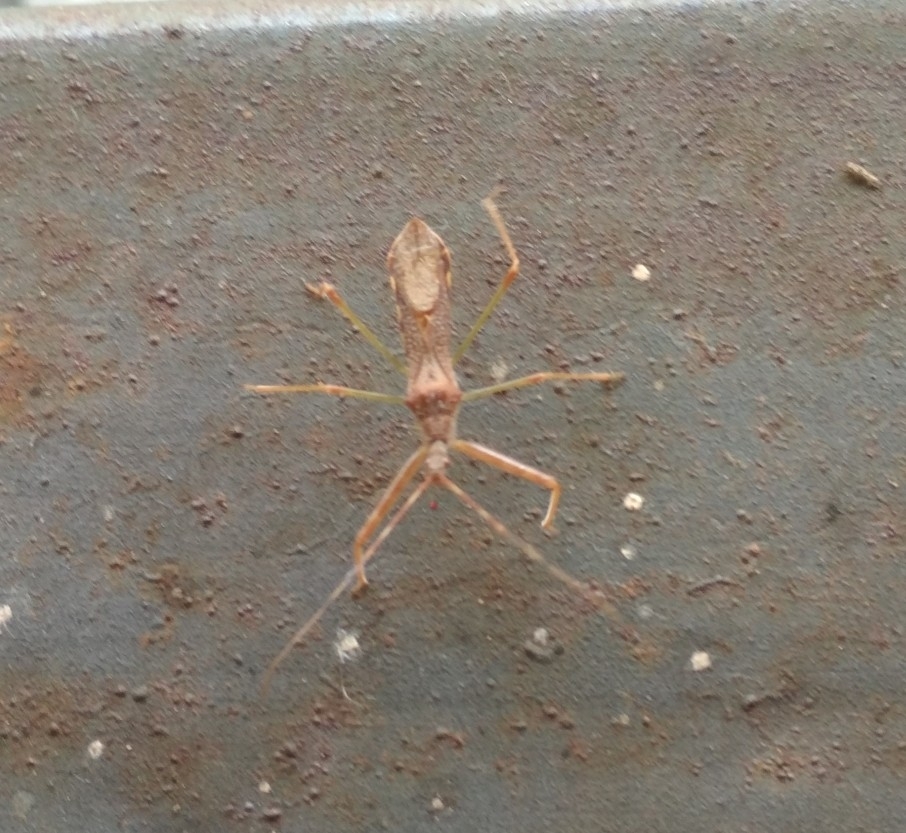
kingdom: Animalia
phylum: Arthropoda
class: Insecta
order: Hemiptera
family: Reduviidae
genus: Nagusta
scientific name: Nagusta goedelii
